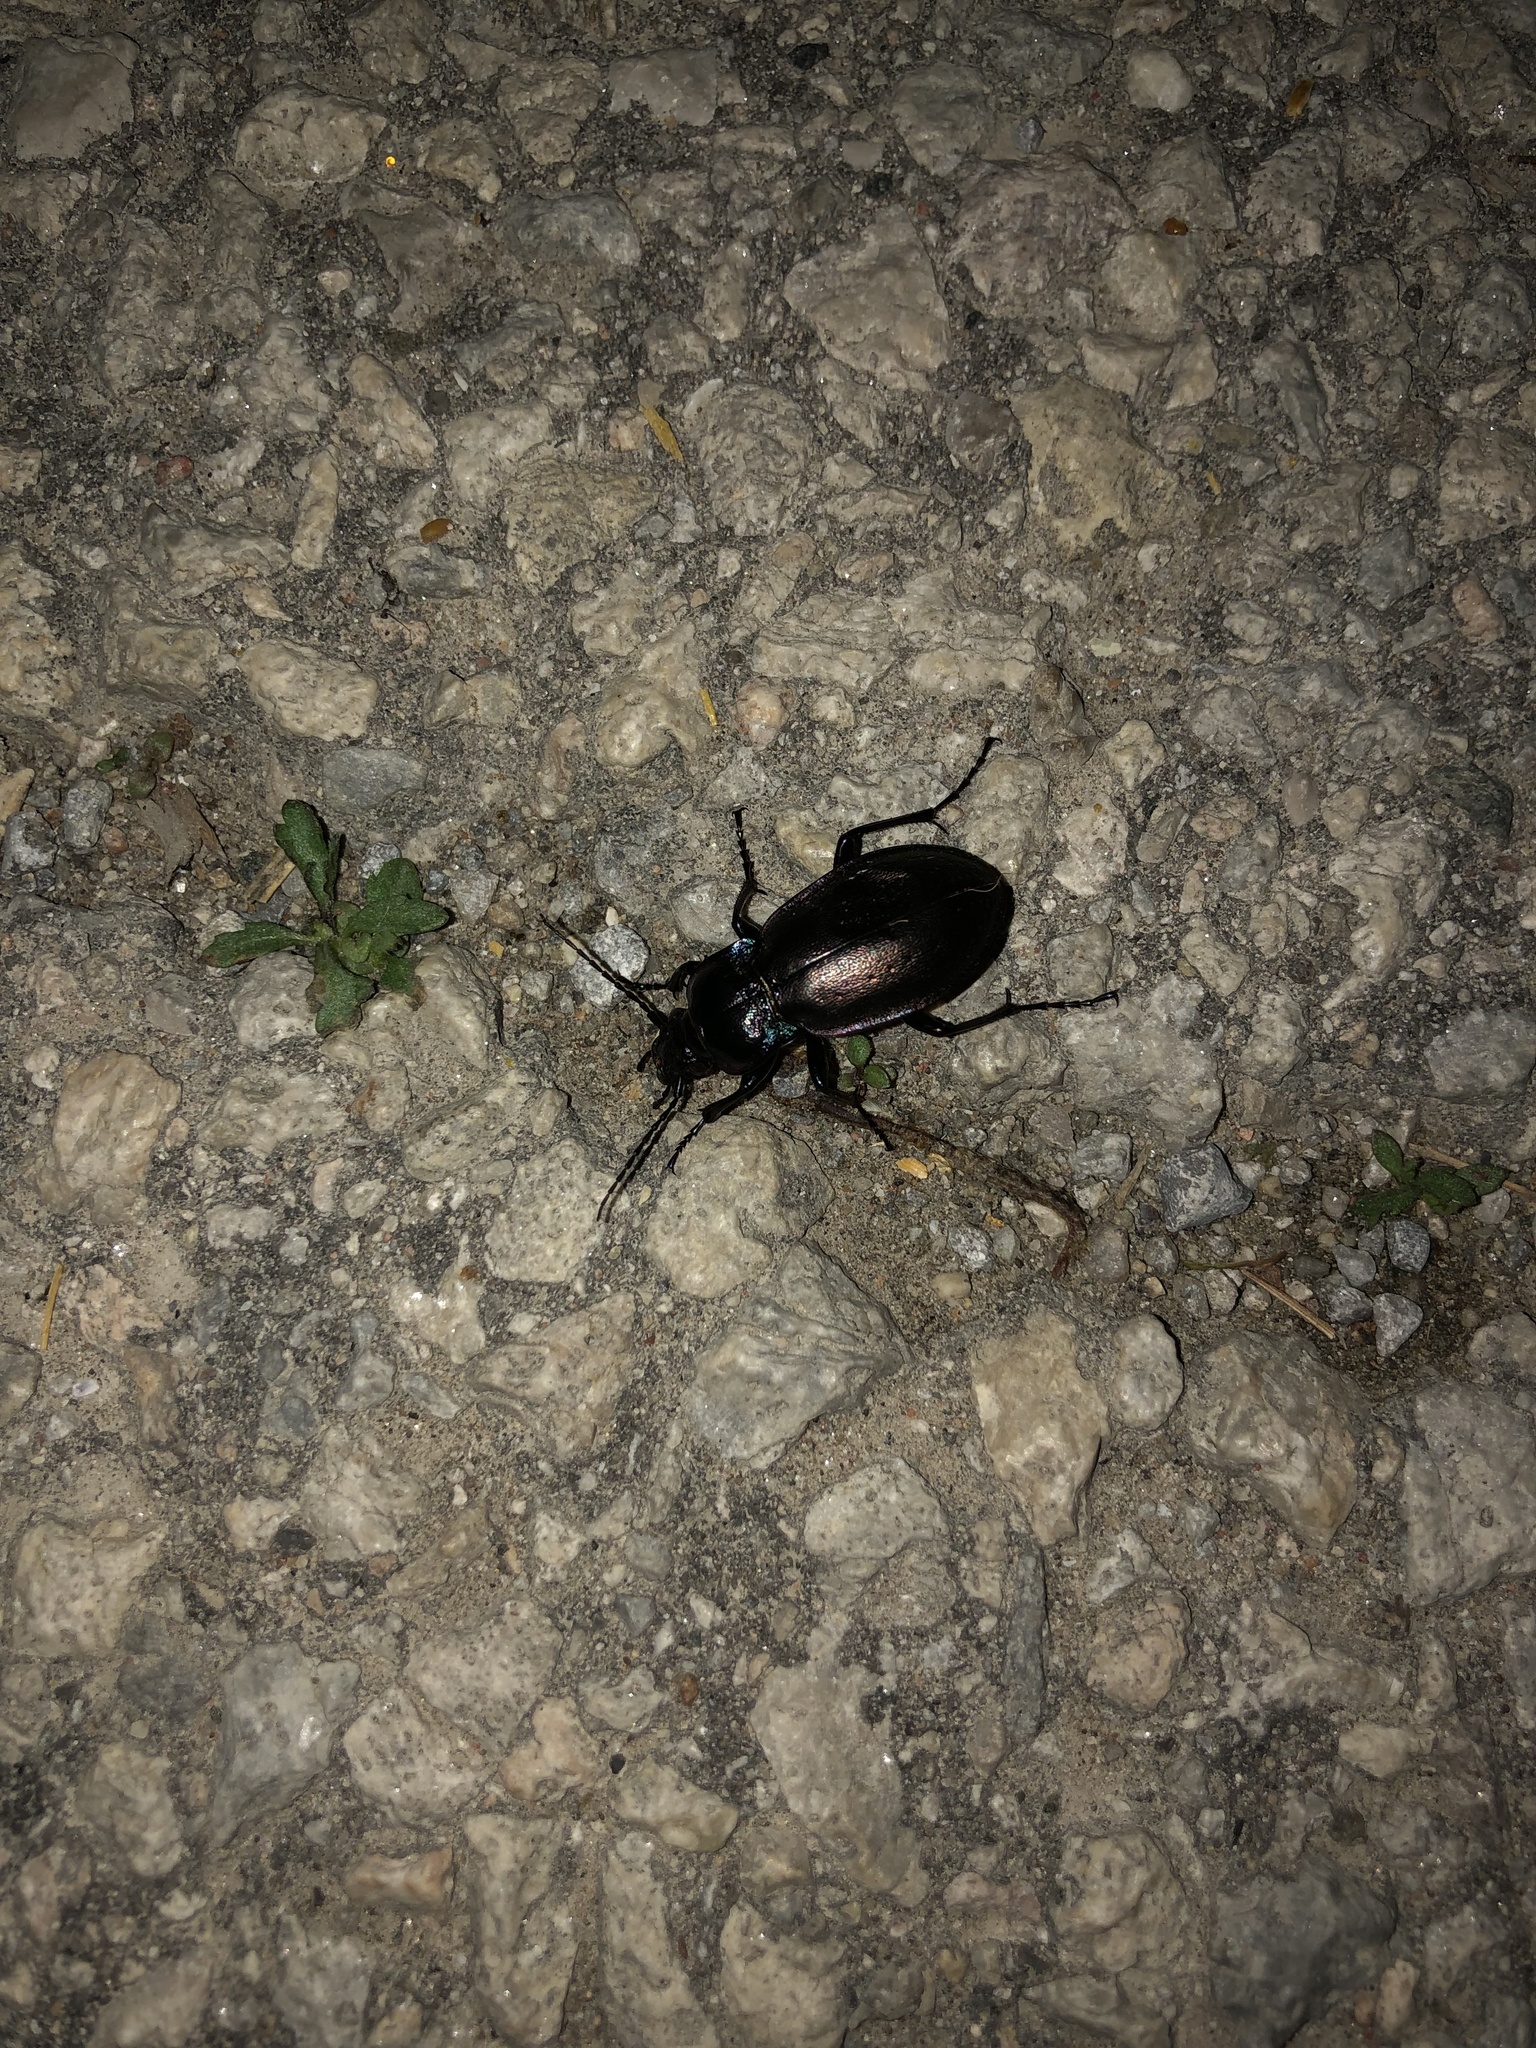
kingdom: Animalia
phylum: Arthropoda
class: Insecta
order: Coleoptera
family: Carabidae
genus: Carabus
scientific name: Carabus nemoralis
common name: European ground beetle
